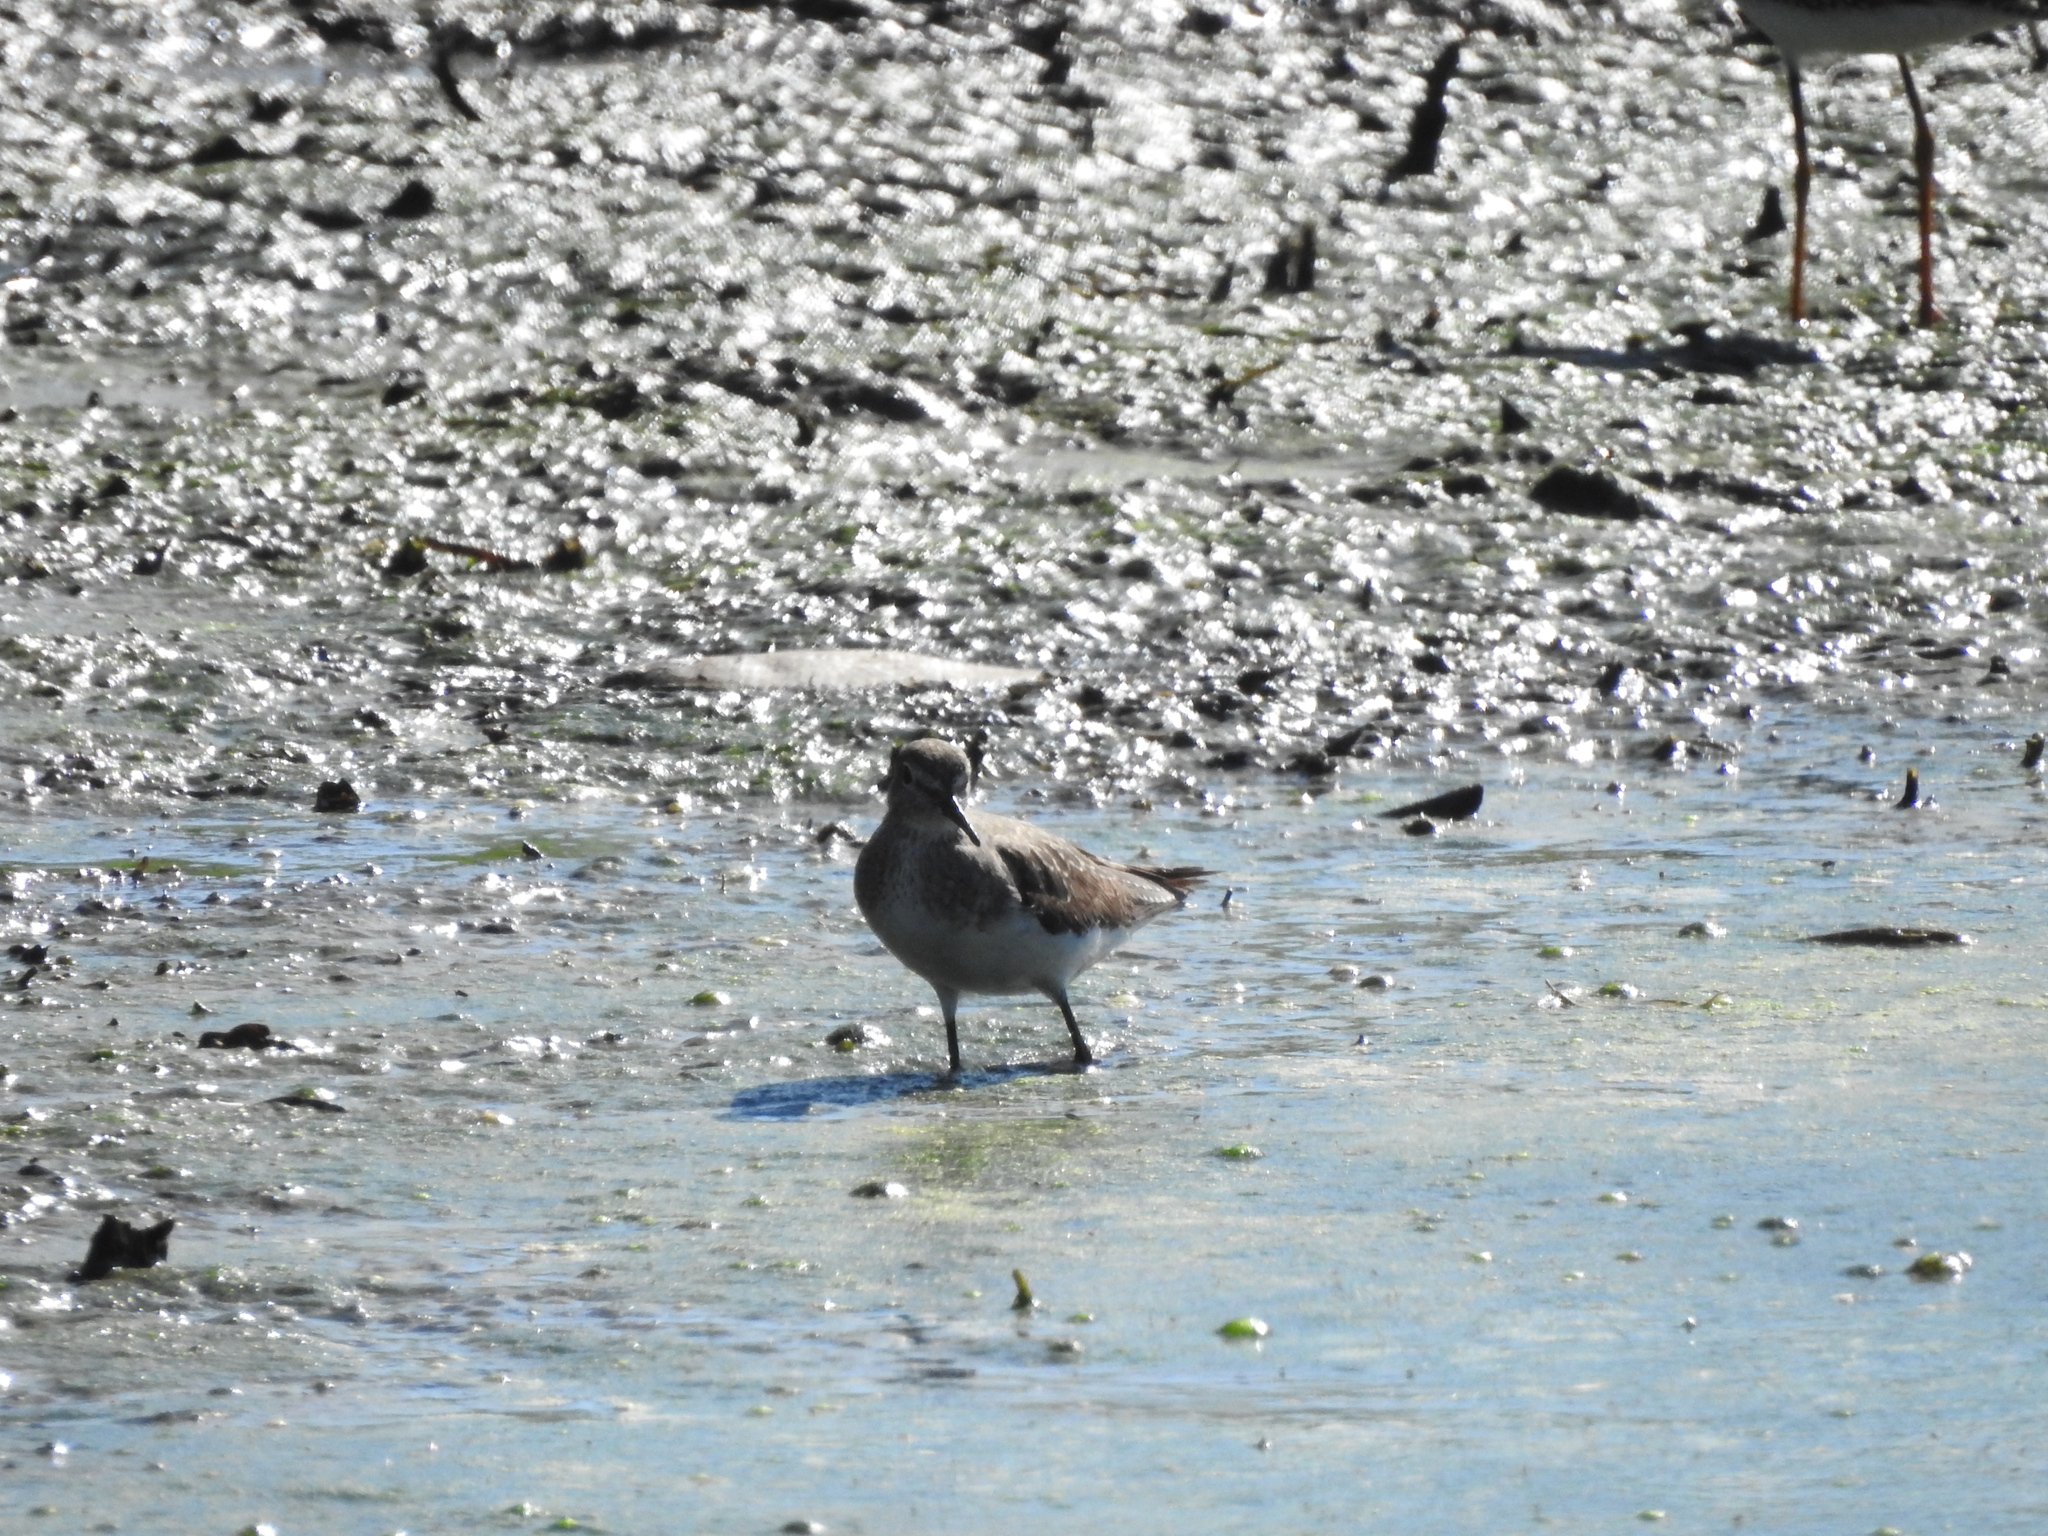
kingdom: Animalia
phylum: Chordata
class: Aves
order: Charadriiformes
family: Scolopacidae
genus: Tringa
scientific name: Tringa solitaria
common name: Solitary sandpiper
